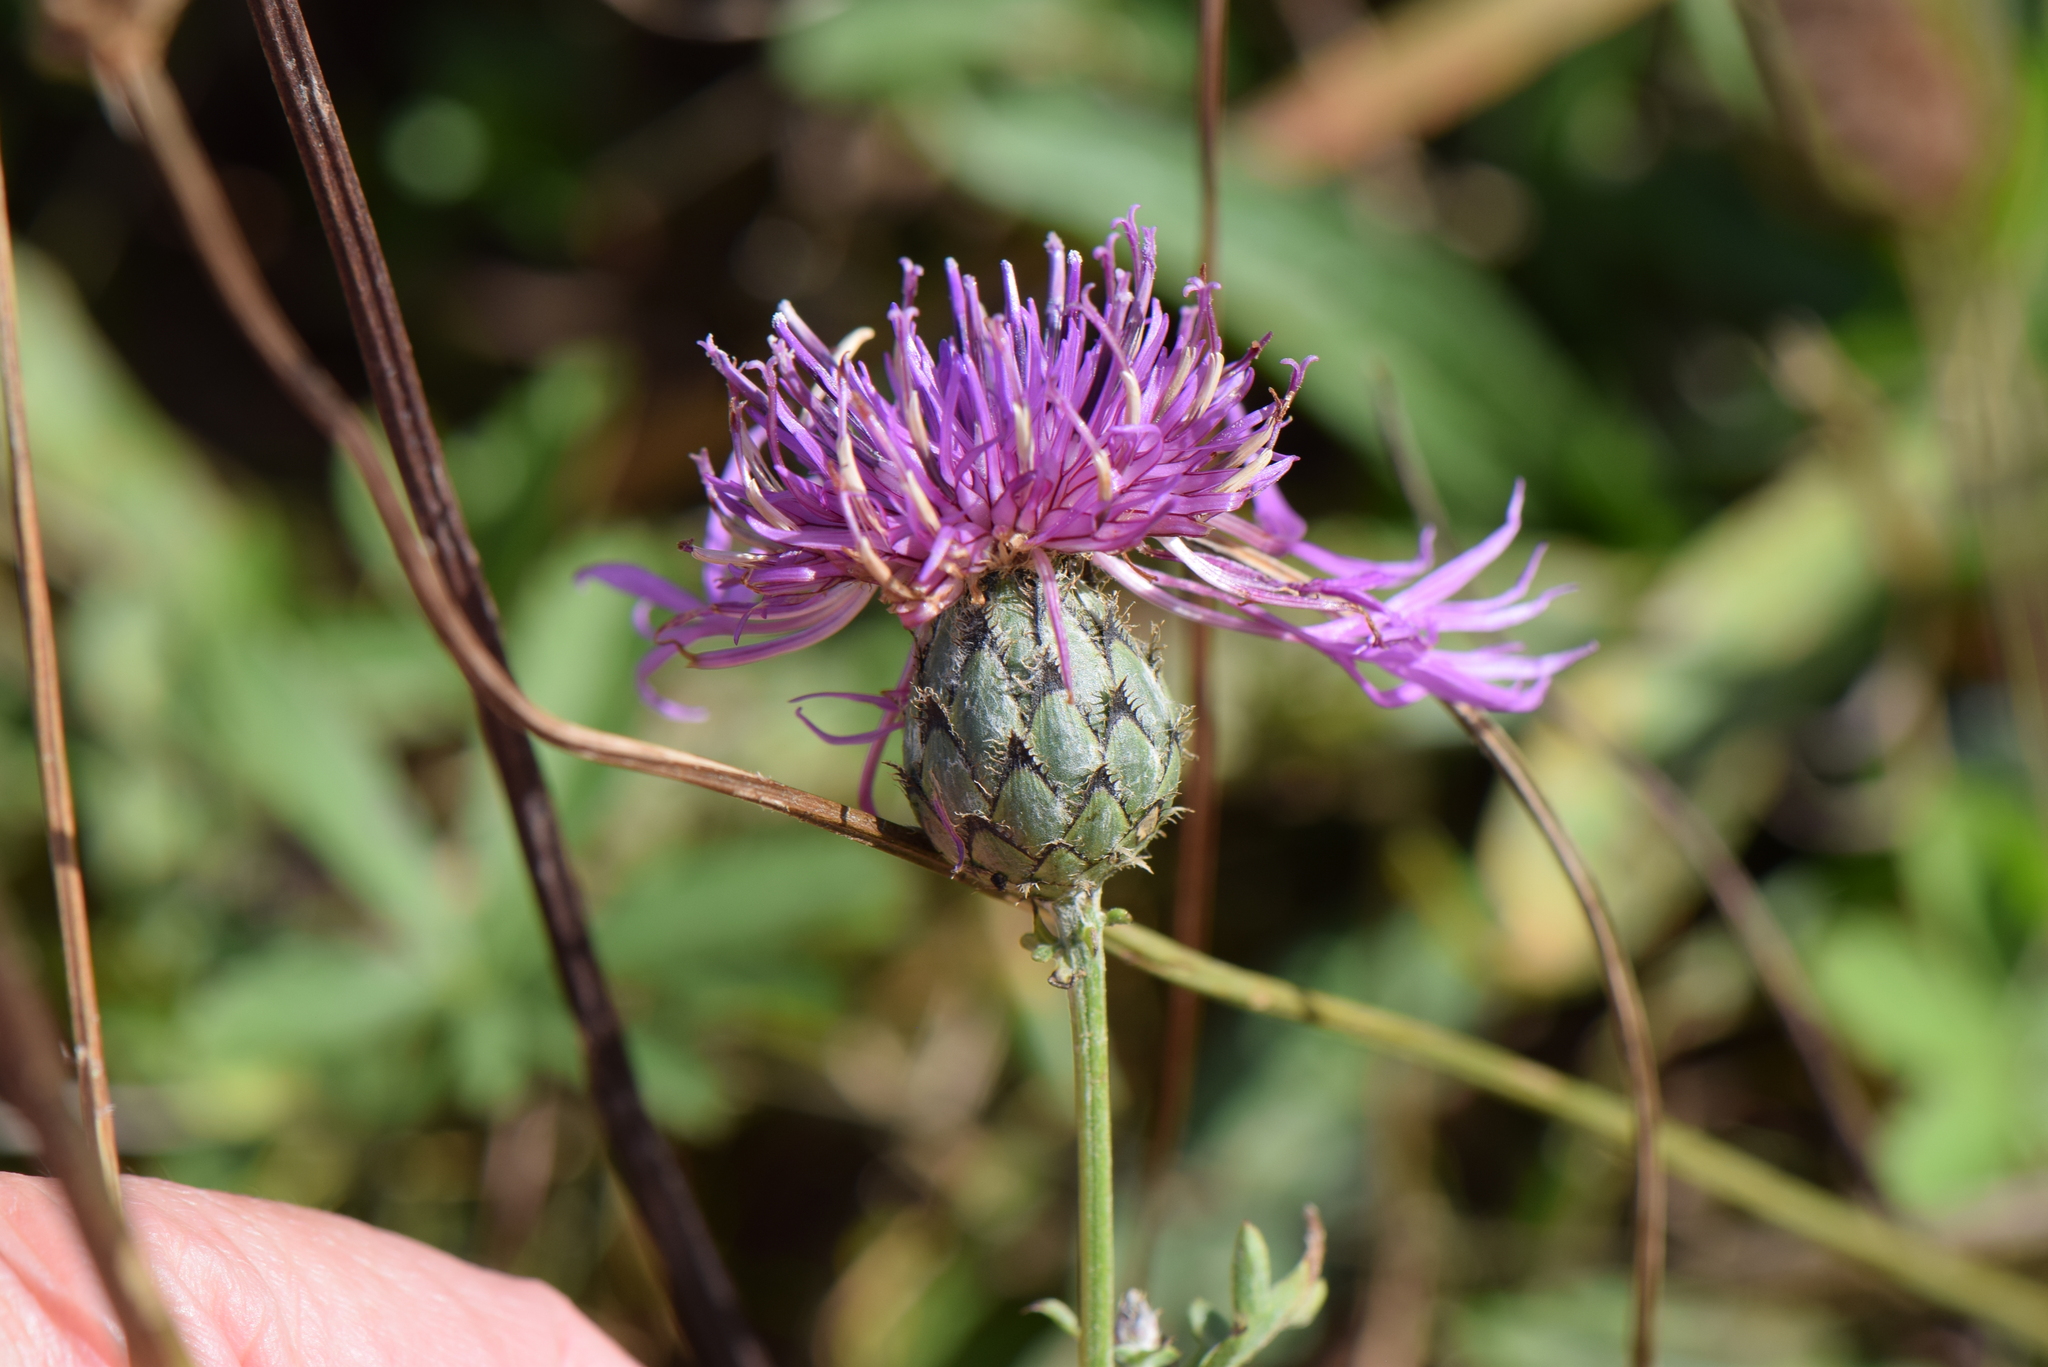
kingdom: Plantae
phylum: Tracheophyta
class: Magnoliopsida
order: Asterales
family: Asteraceae
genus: Centaurea
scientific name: Centaurea scabiosa
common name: Greater knapweed
